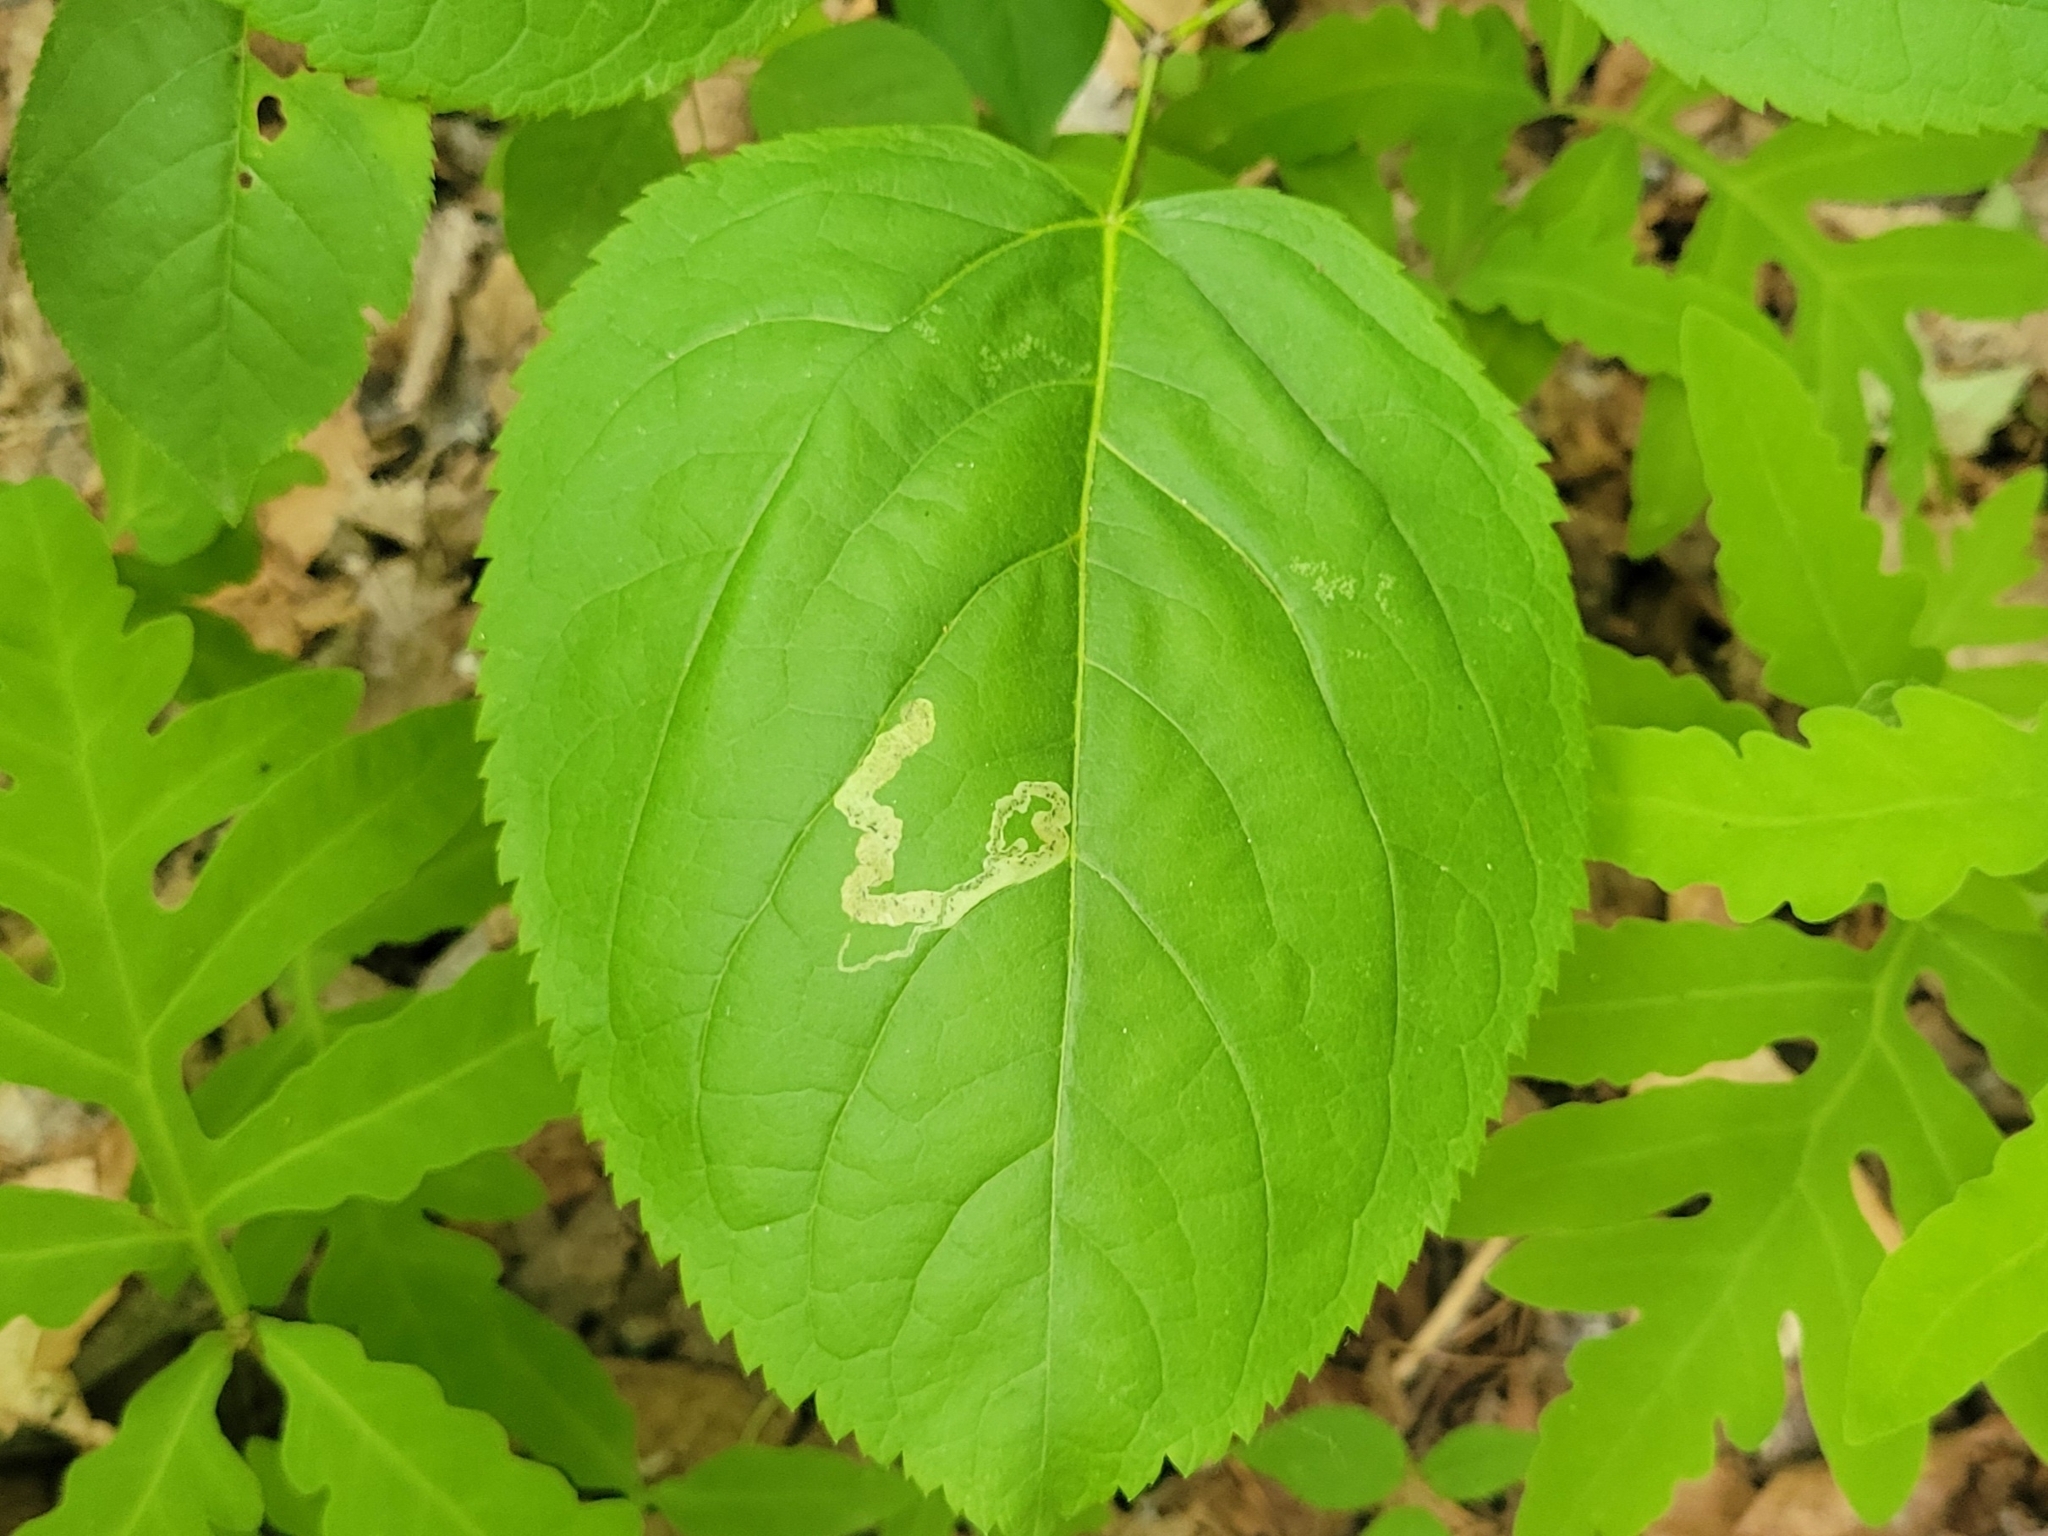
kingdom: Plantae
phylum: Tracheophyta
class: Magnoliopsida
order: Apiales
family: Araliaceae
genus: Aralia
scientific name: Aralia nudicaulis
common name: Wild sarsaparilla
